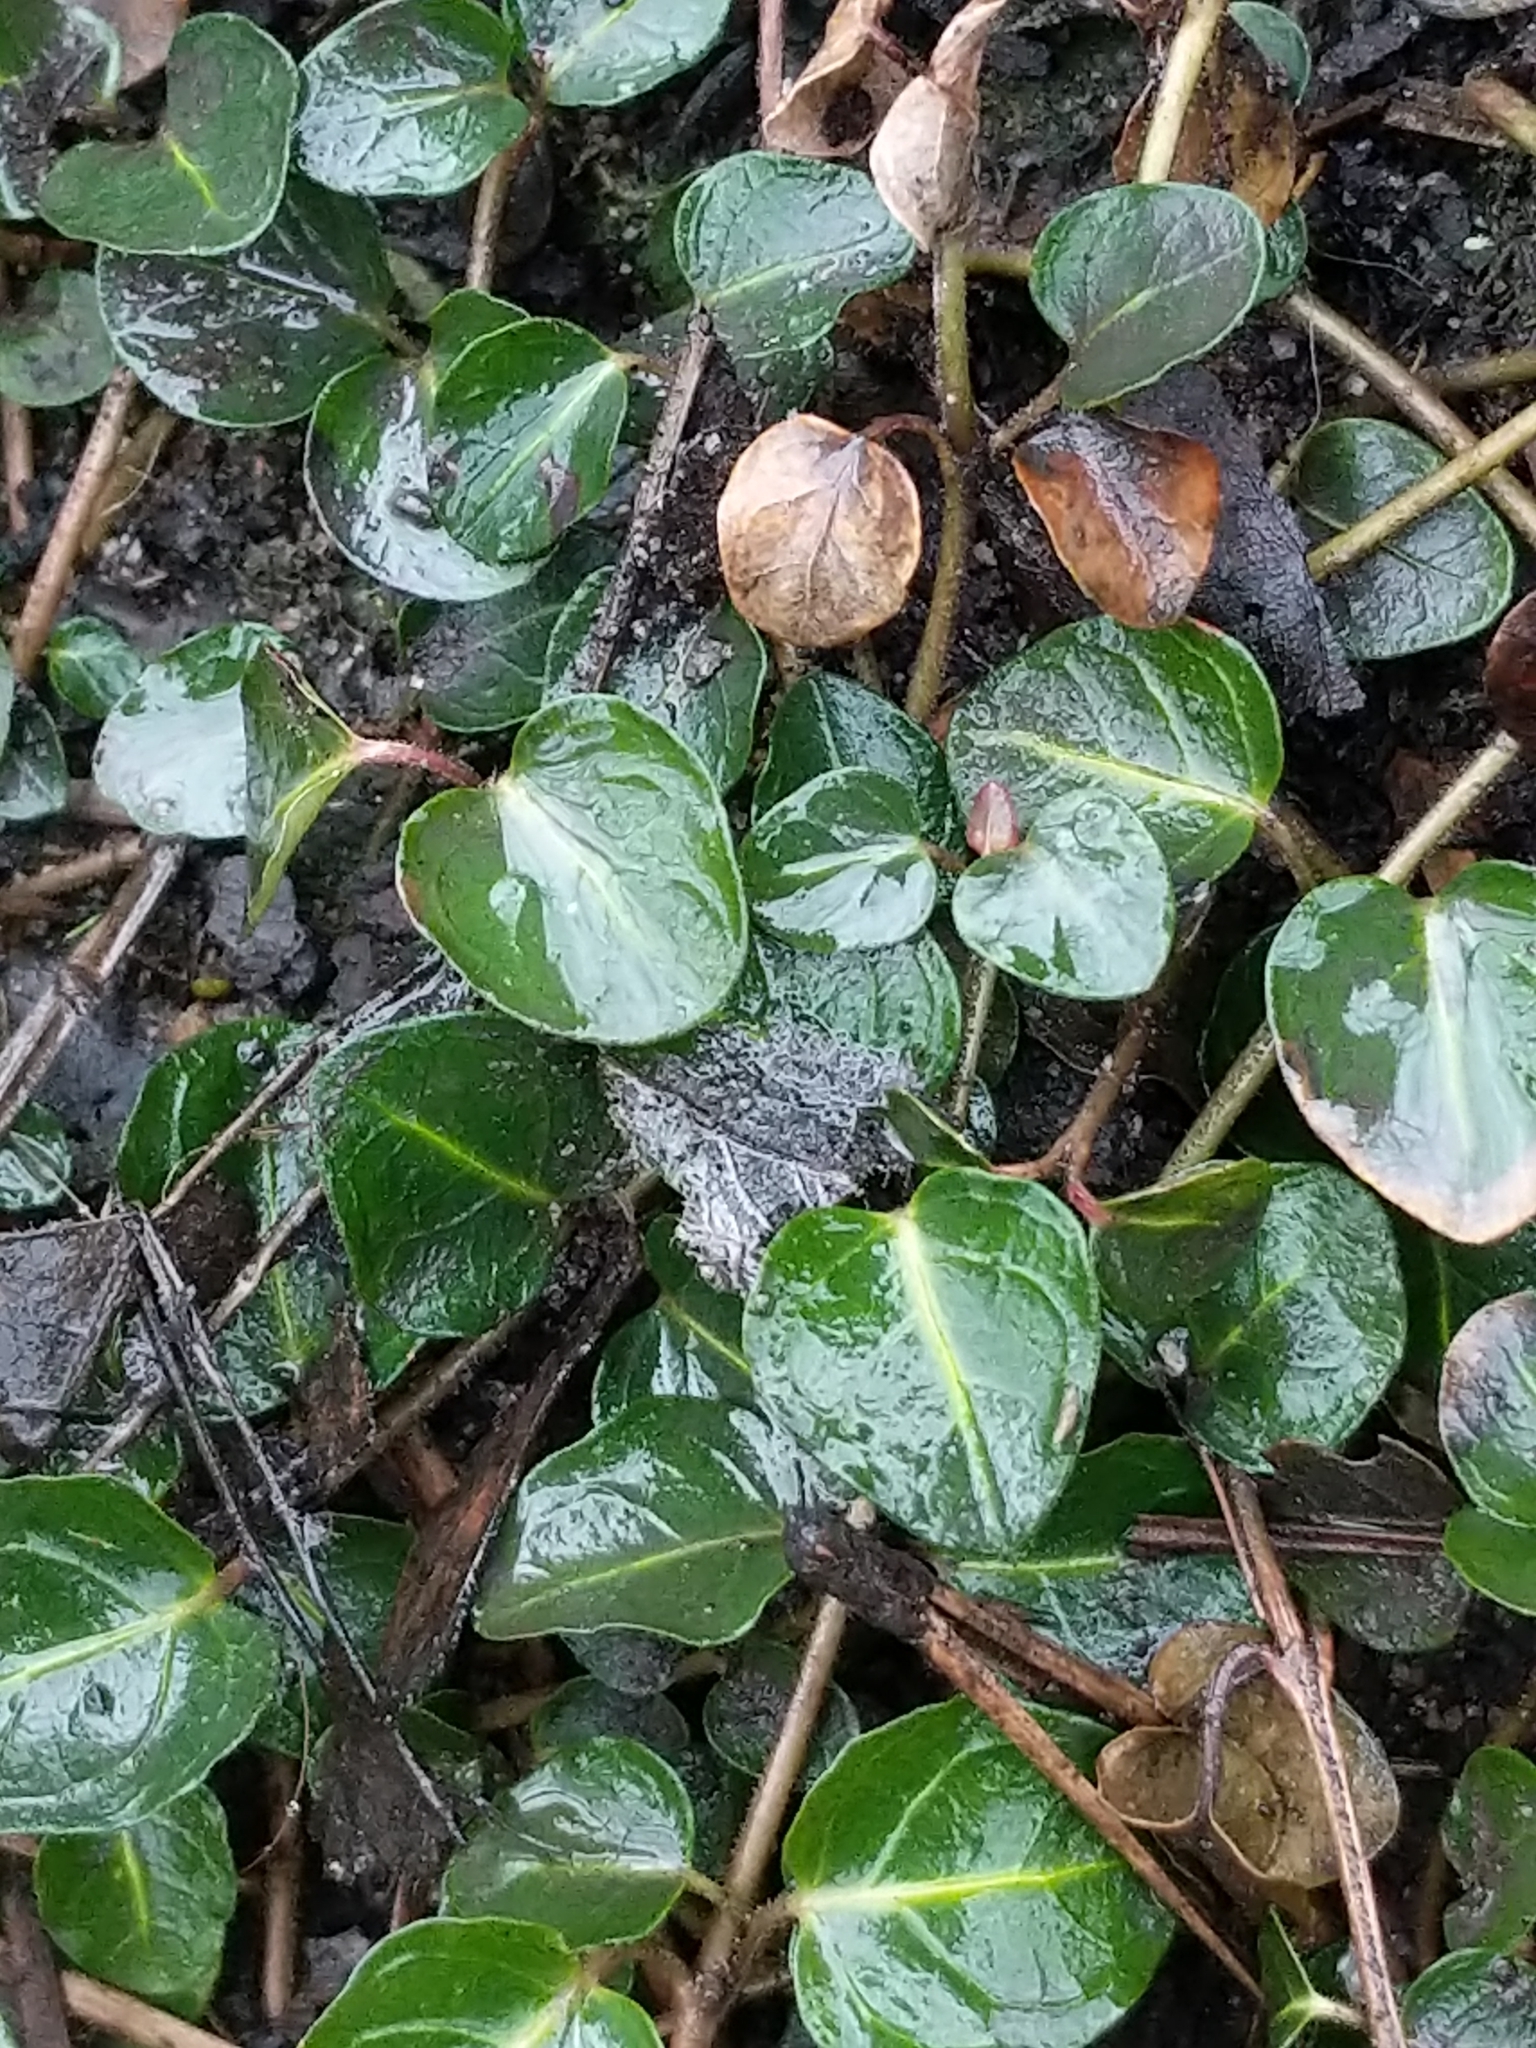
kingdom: Plantae
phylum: Tracheophyta
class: Magnoliopsida
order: Gentianales
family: Rubiaceae
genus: Mitchella
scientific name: Mitchella repens
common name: Partridge-berry
